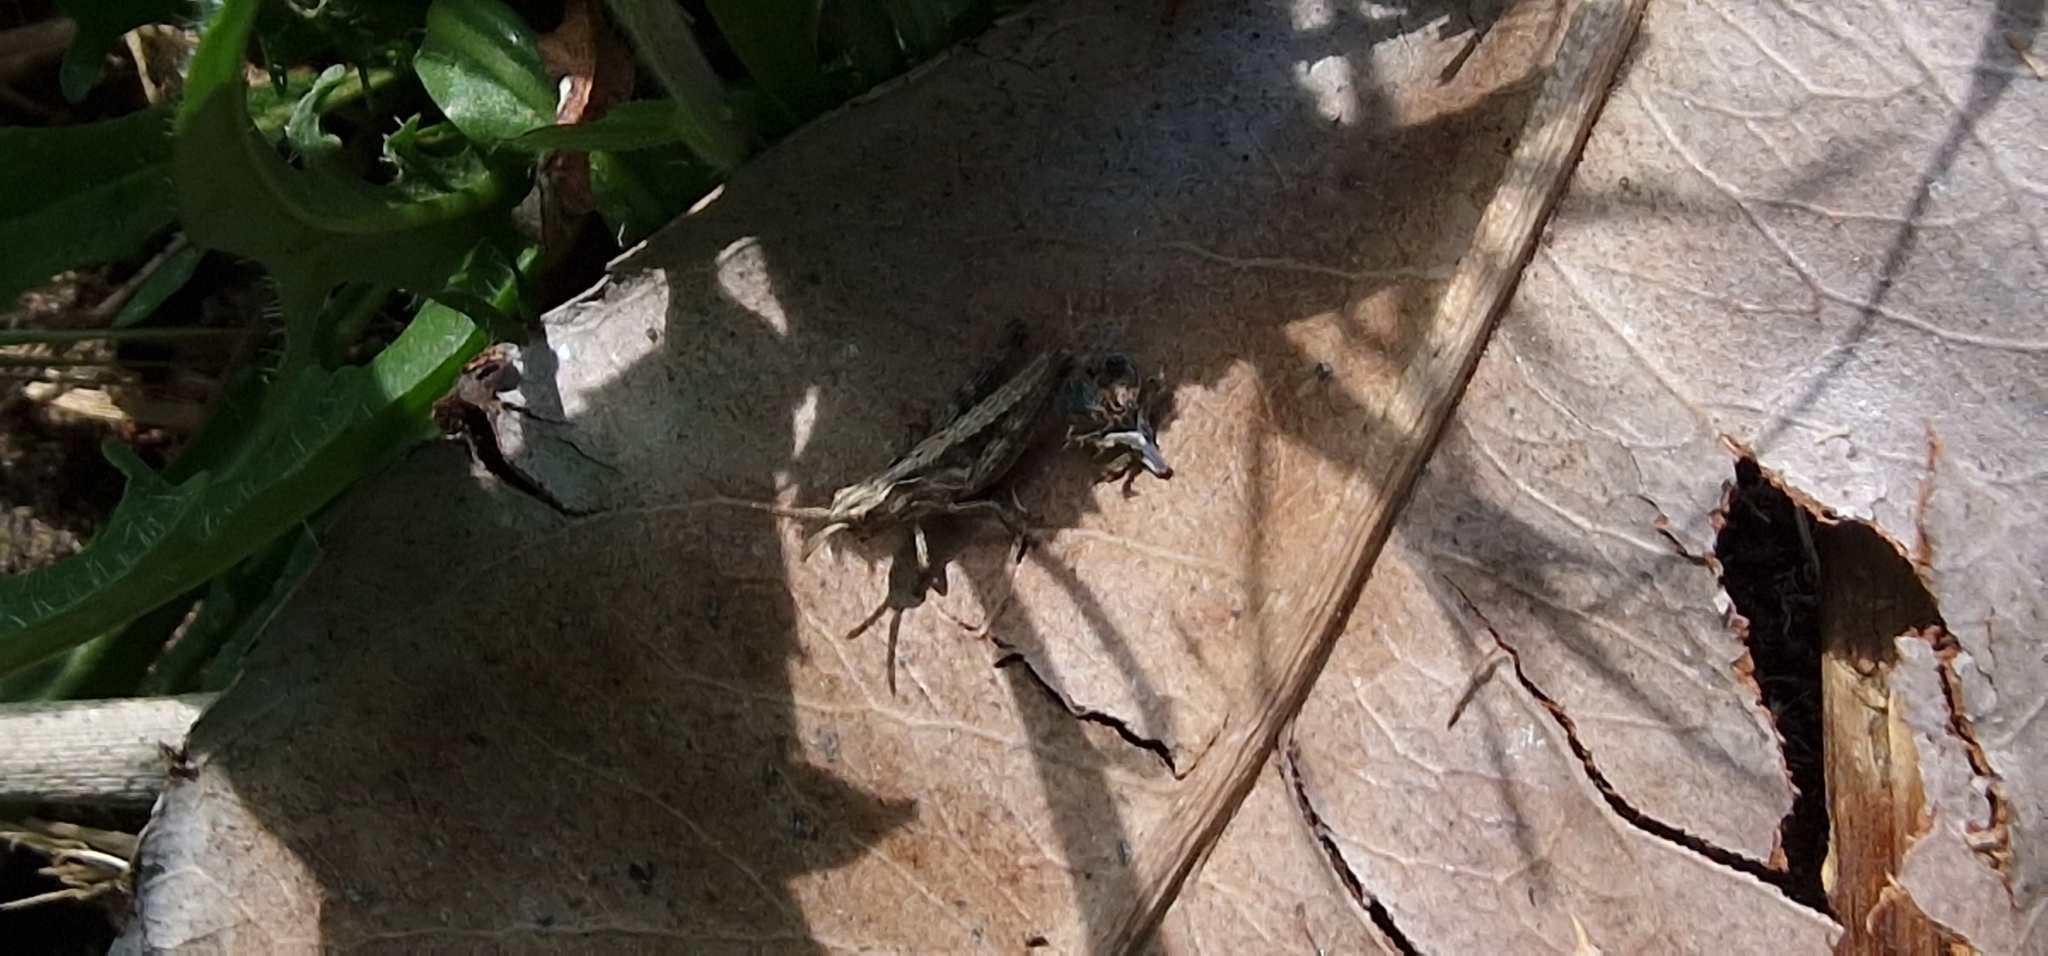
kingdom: Animalia
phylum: Arthropoda
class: Insecta
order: Orthoptera
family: Acrididae
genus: Chorthippus
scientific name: Chorthippus brunneus
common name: Field grasshopper
